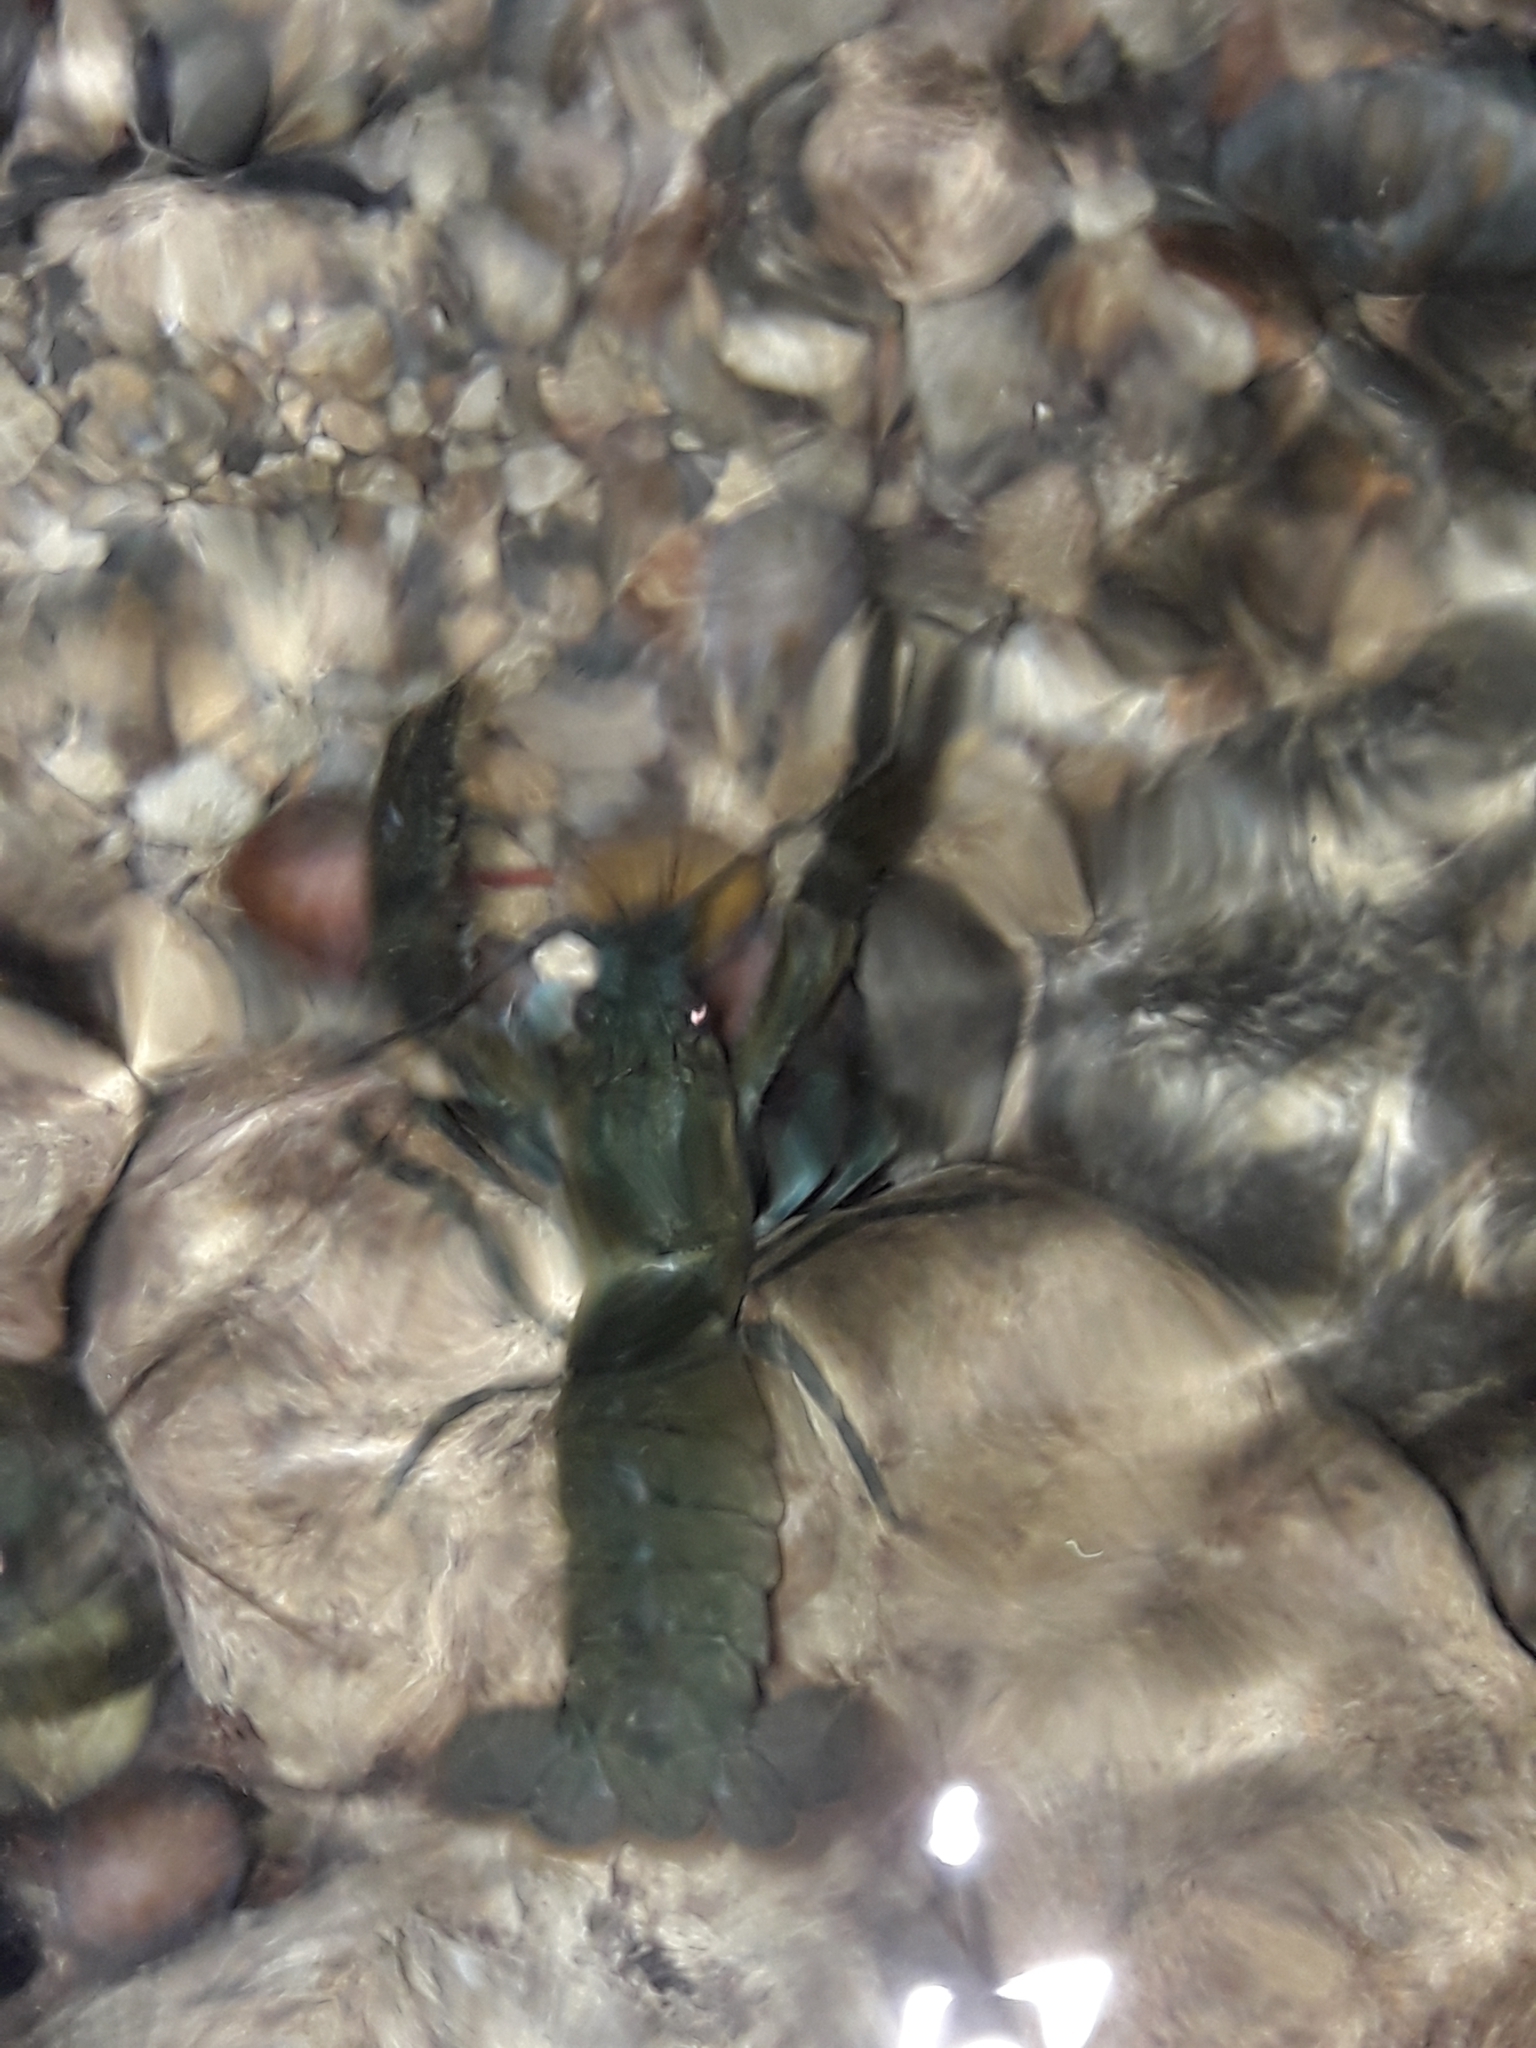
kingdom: Animalia
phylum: Arthropoda
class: Malacostraca
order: Decapoda
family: Parastacidae
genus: Paranephrops
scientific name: Paranephrops planifrons
